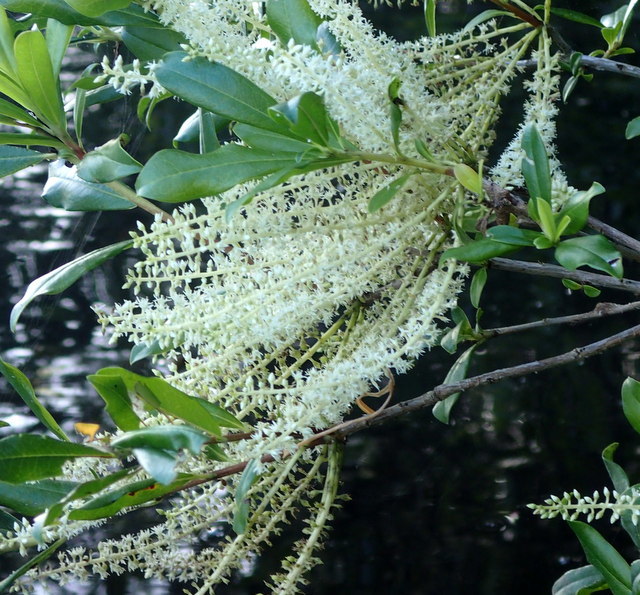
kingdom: Plantae
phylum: Tracheophyta
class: Magnoliopsida
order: Ericales
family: Cyrillaceae
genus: Cyrilla
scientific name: Cyrilla racemiflora
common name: Black titi
